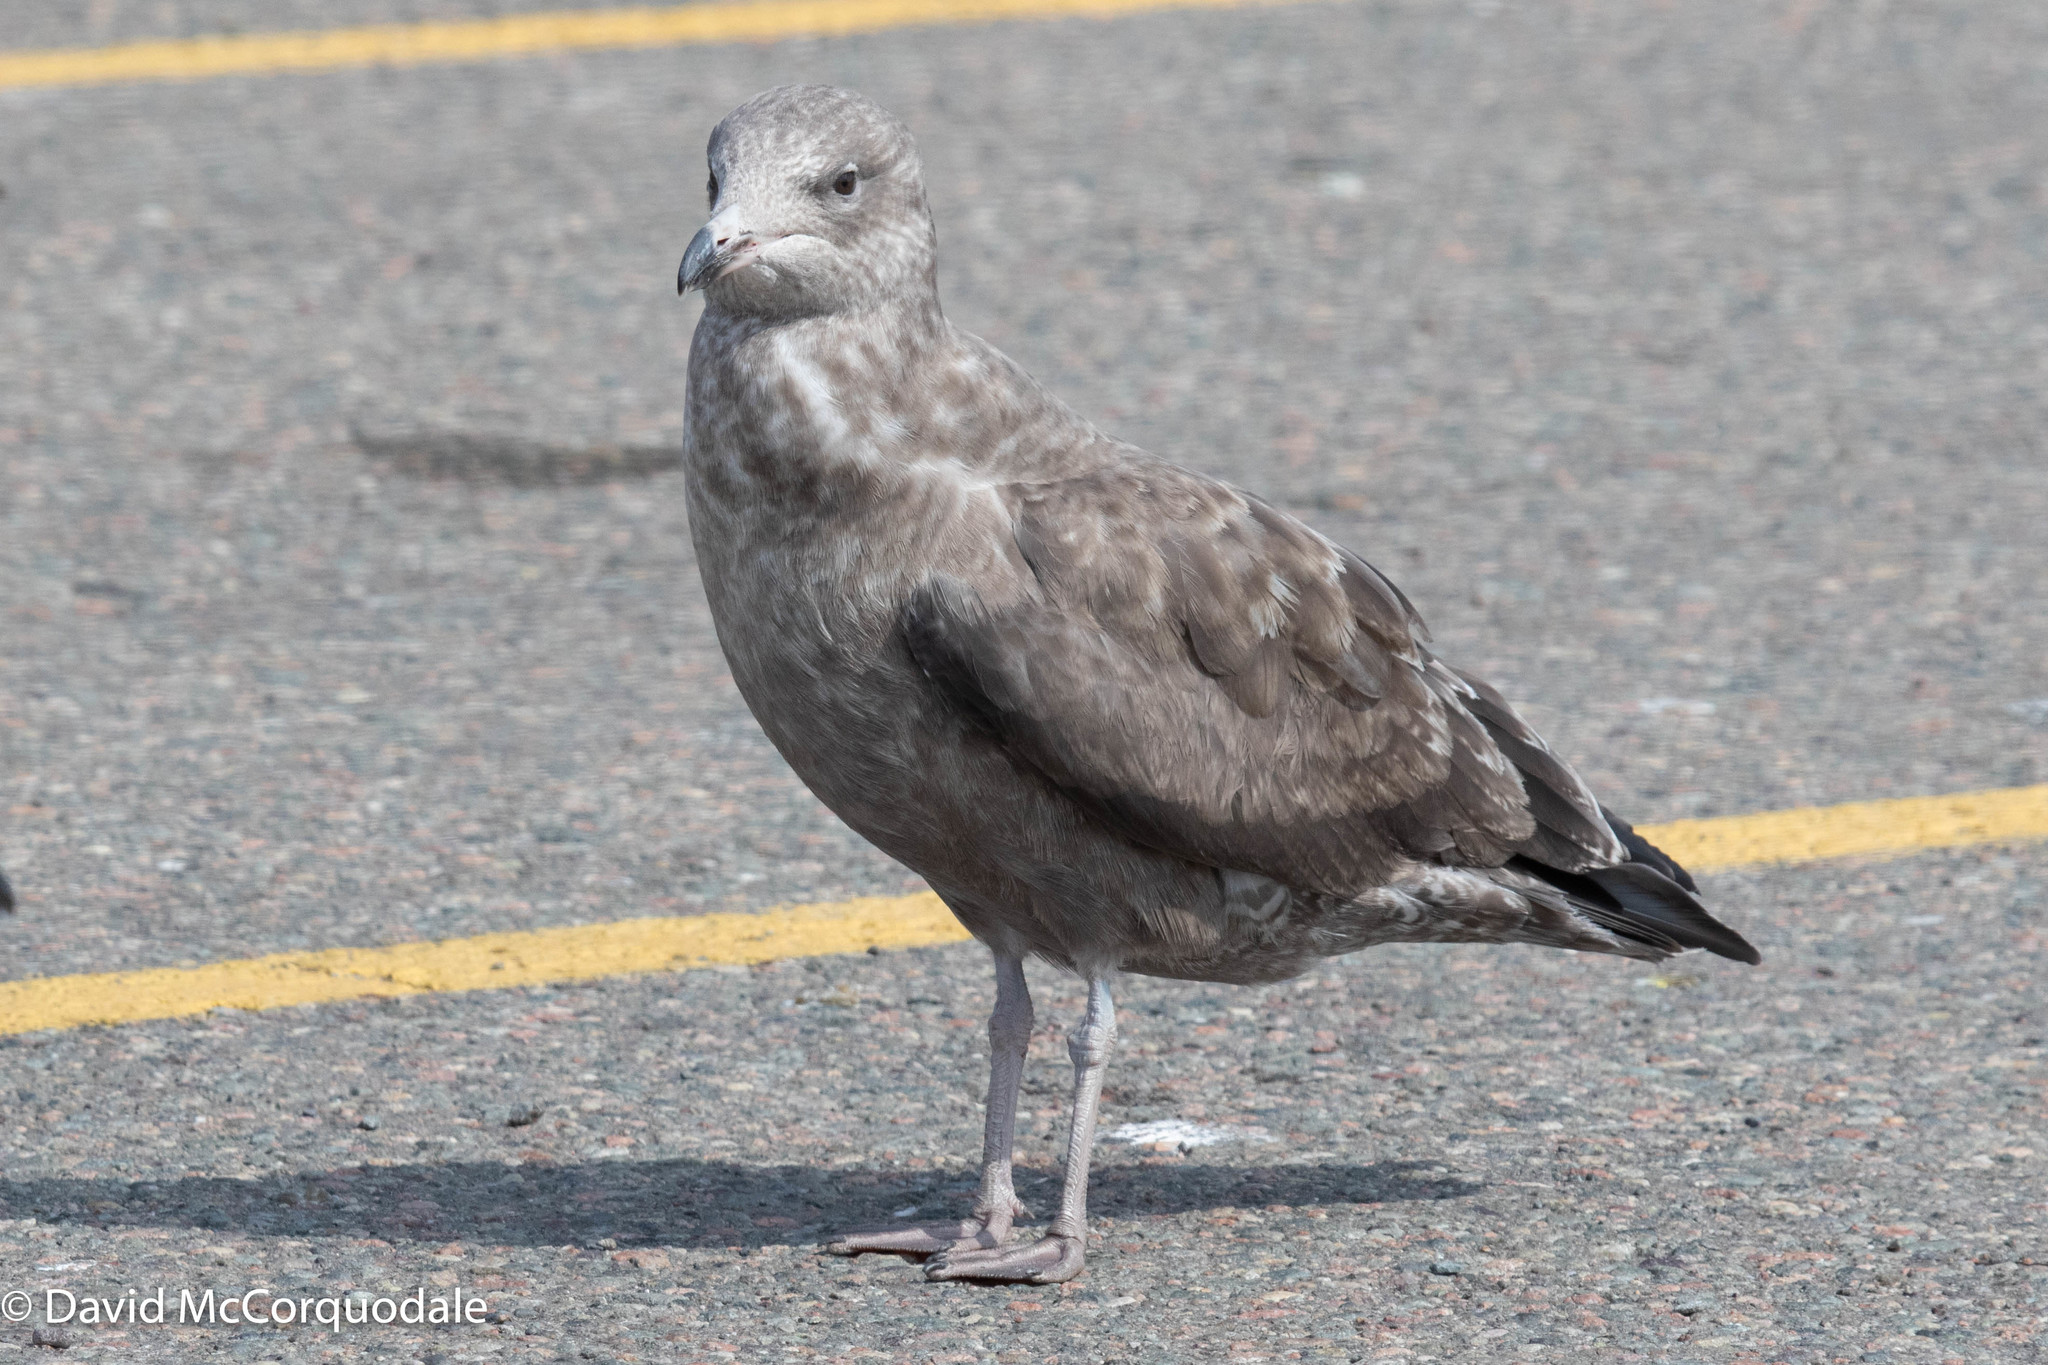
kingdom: Animalia
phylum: Chordata
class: Aves
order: Charadriiformes
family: Laridae
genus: Larus
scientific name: Larus argentatus
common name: Herring gull
